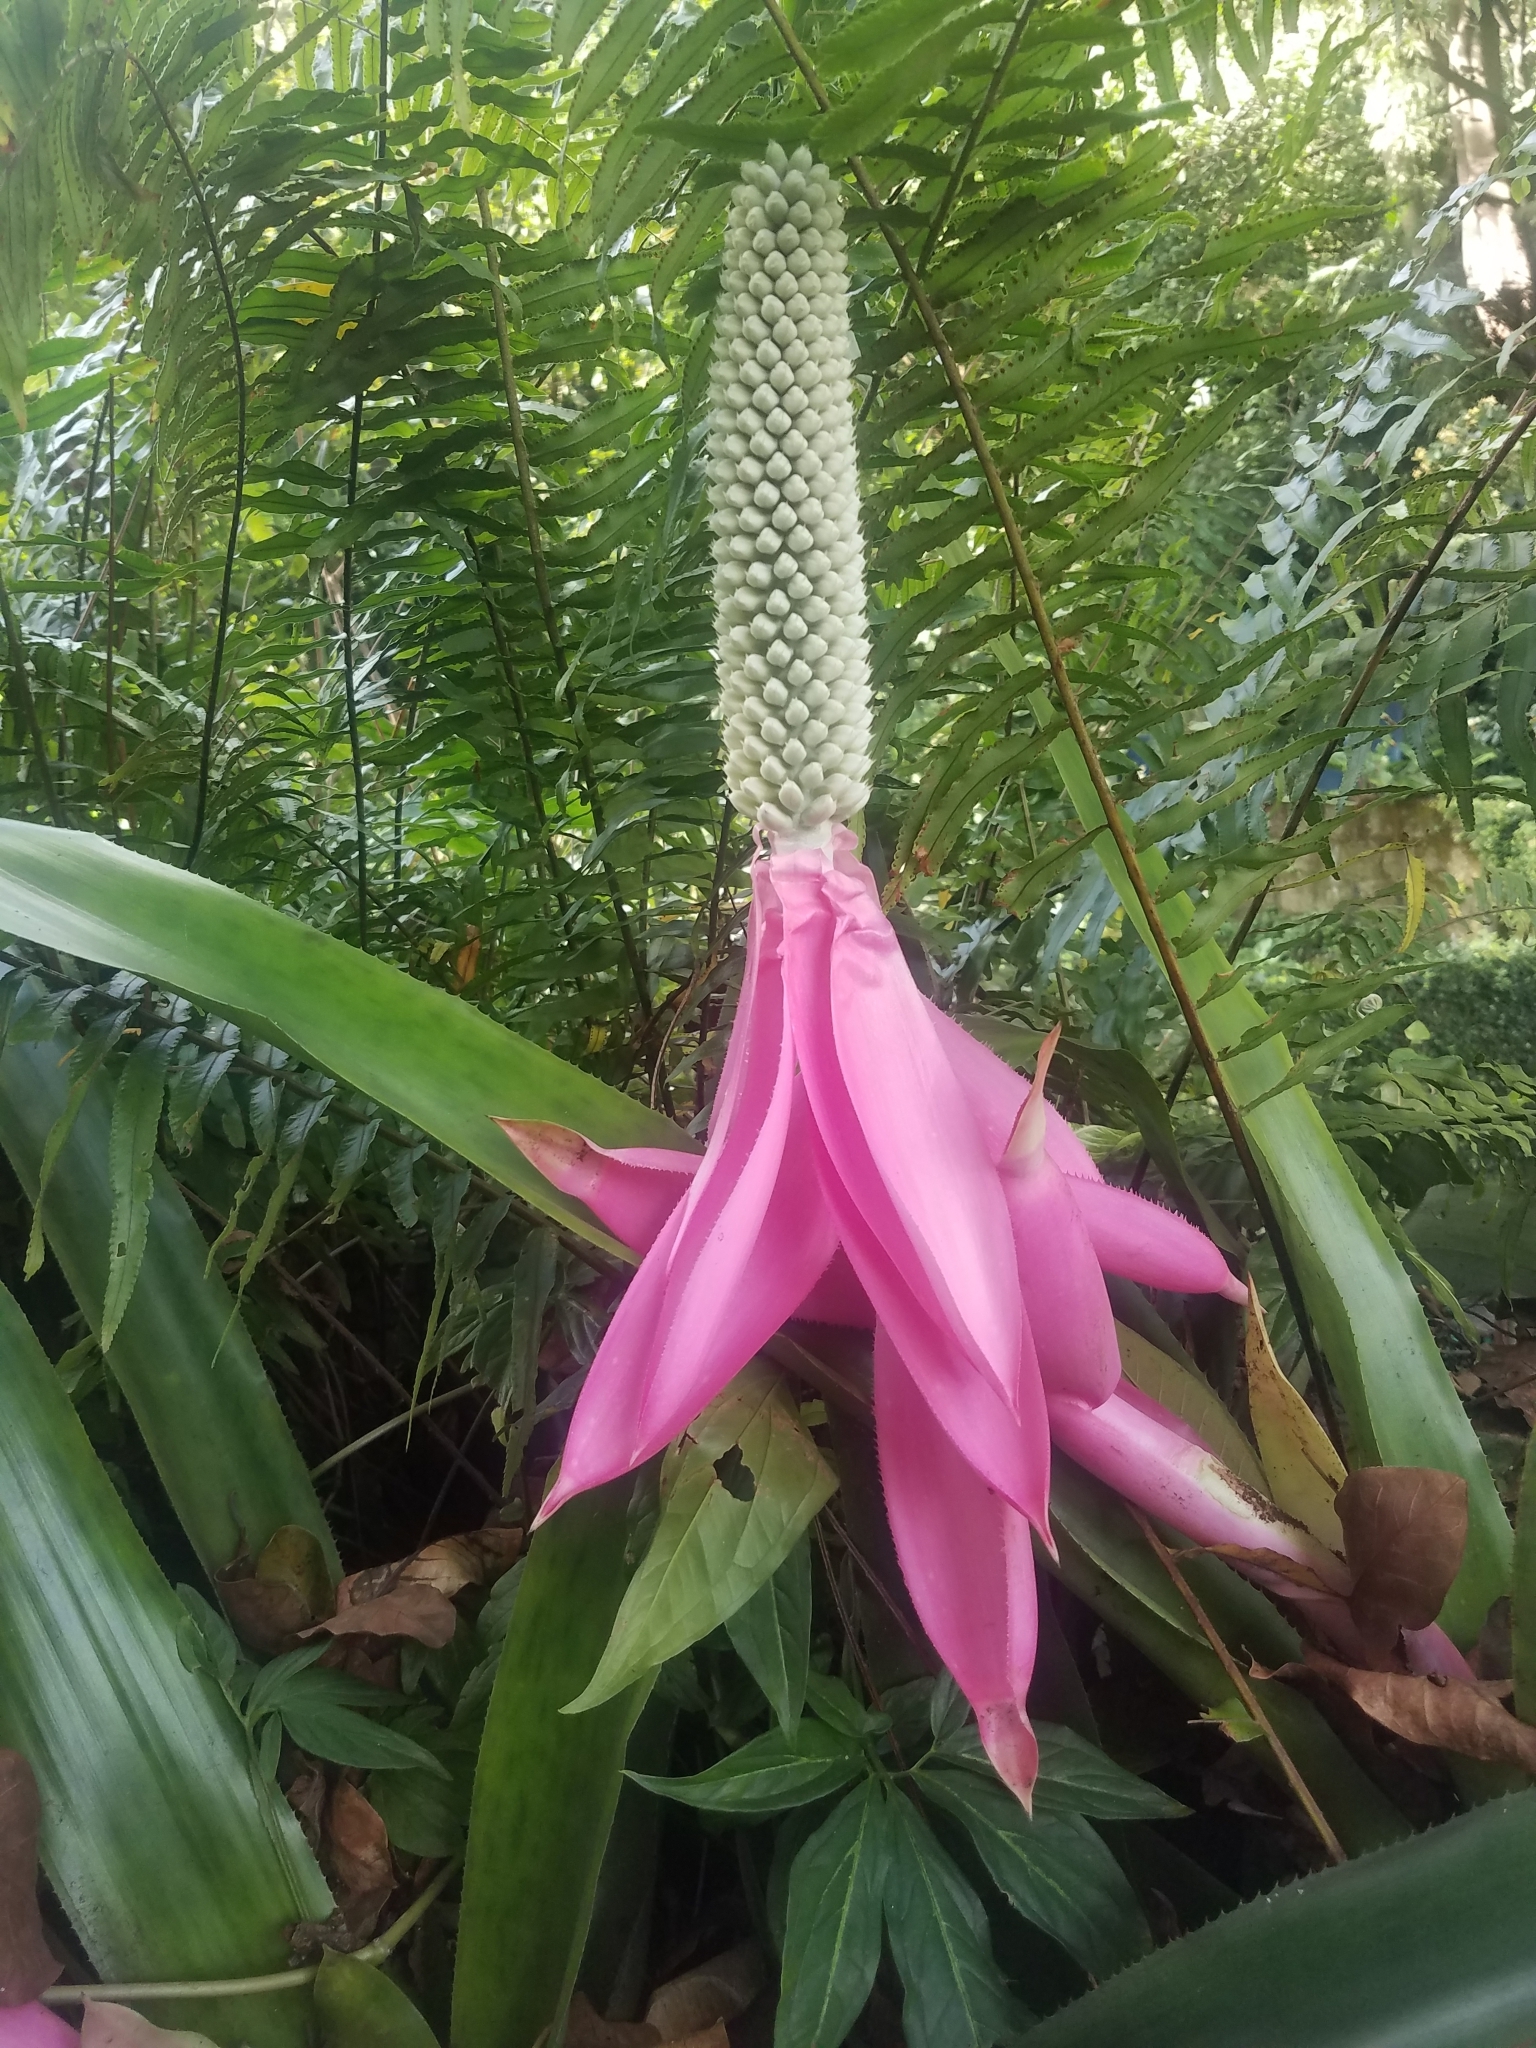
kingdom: Plantae
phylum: Tracheophyta
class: Liliopsida
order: Poales
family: Bromeliaceae
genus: Aechmea
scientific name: Aechmea mariae-reginae
